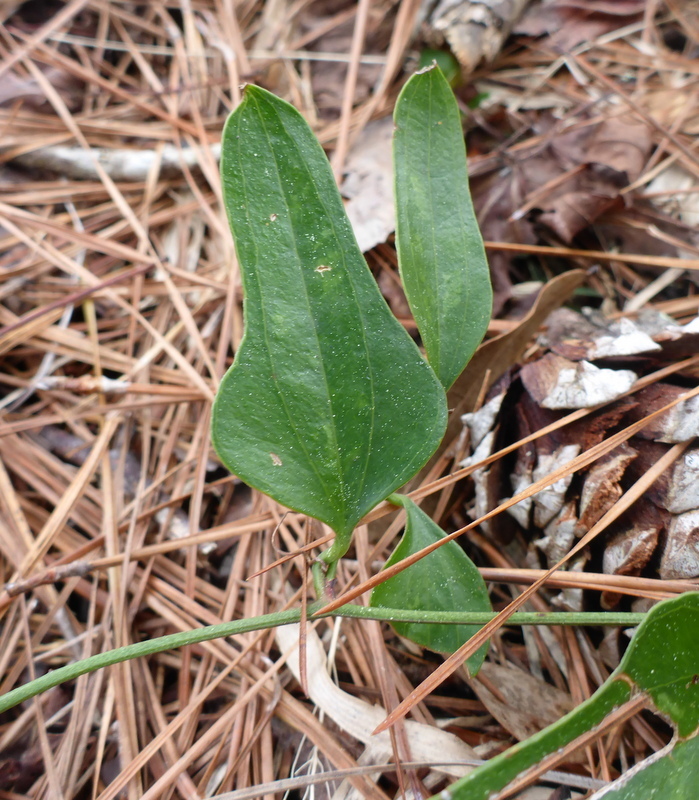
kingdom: Plantae
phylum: Tracheophyta
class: Liliopsida
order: Liliales
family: Smilacaceae
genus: Smilax
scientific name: Smilax auriculata
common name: Wild bamboo
